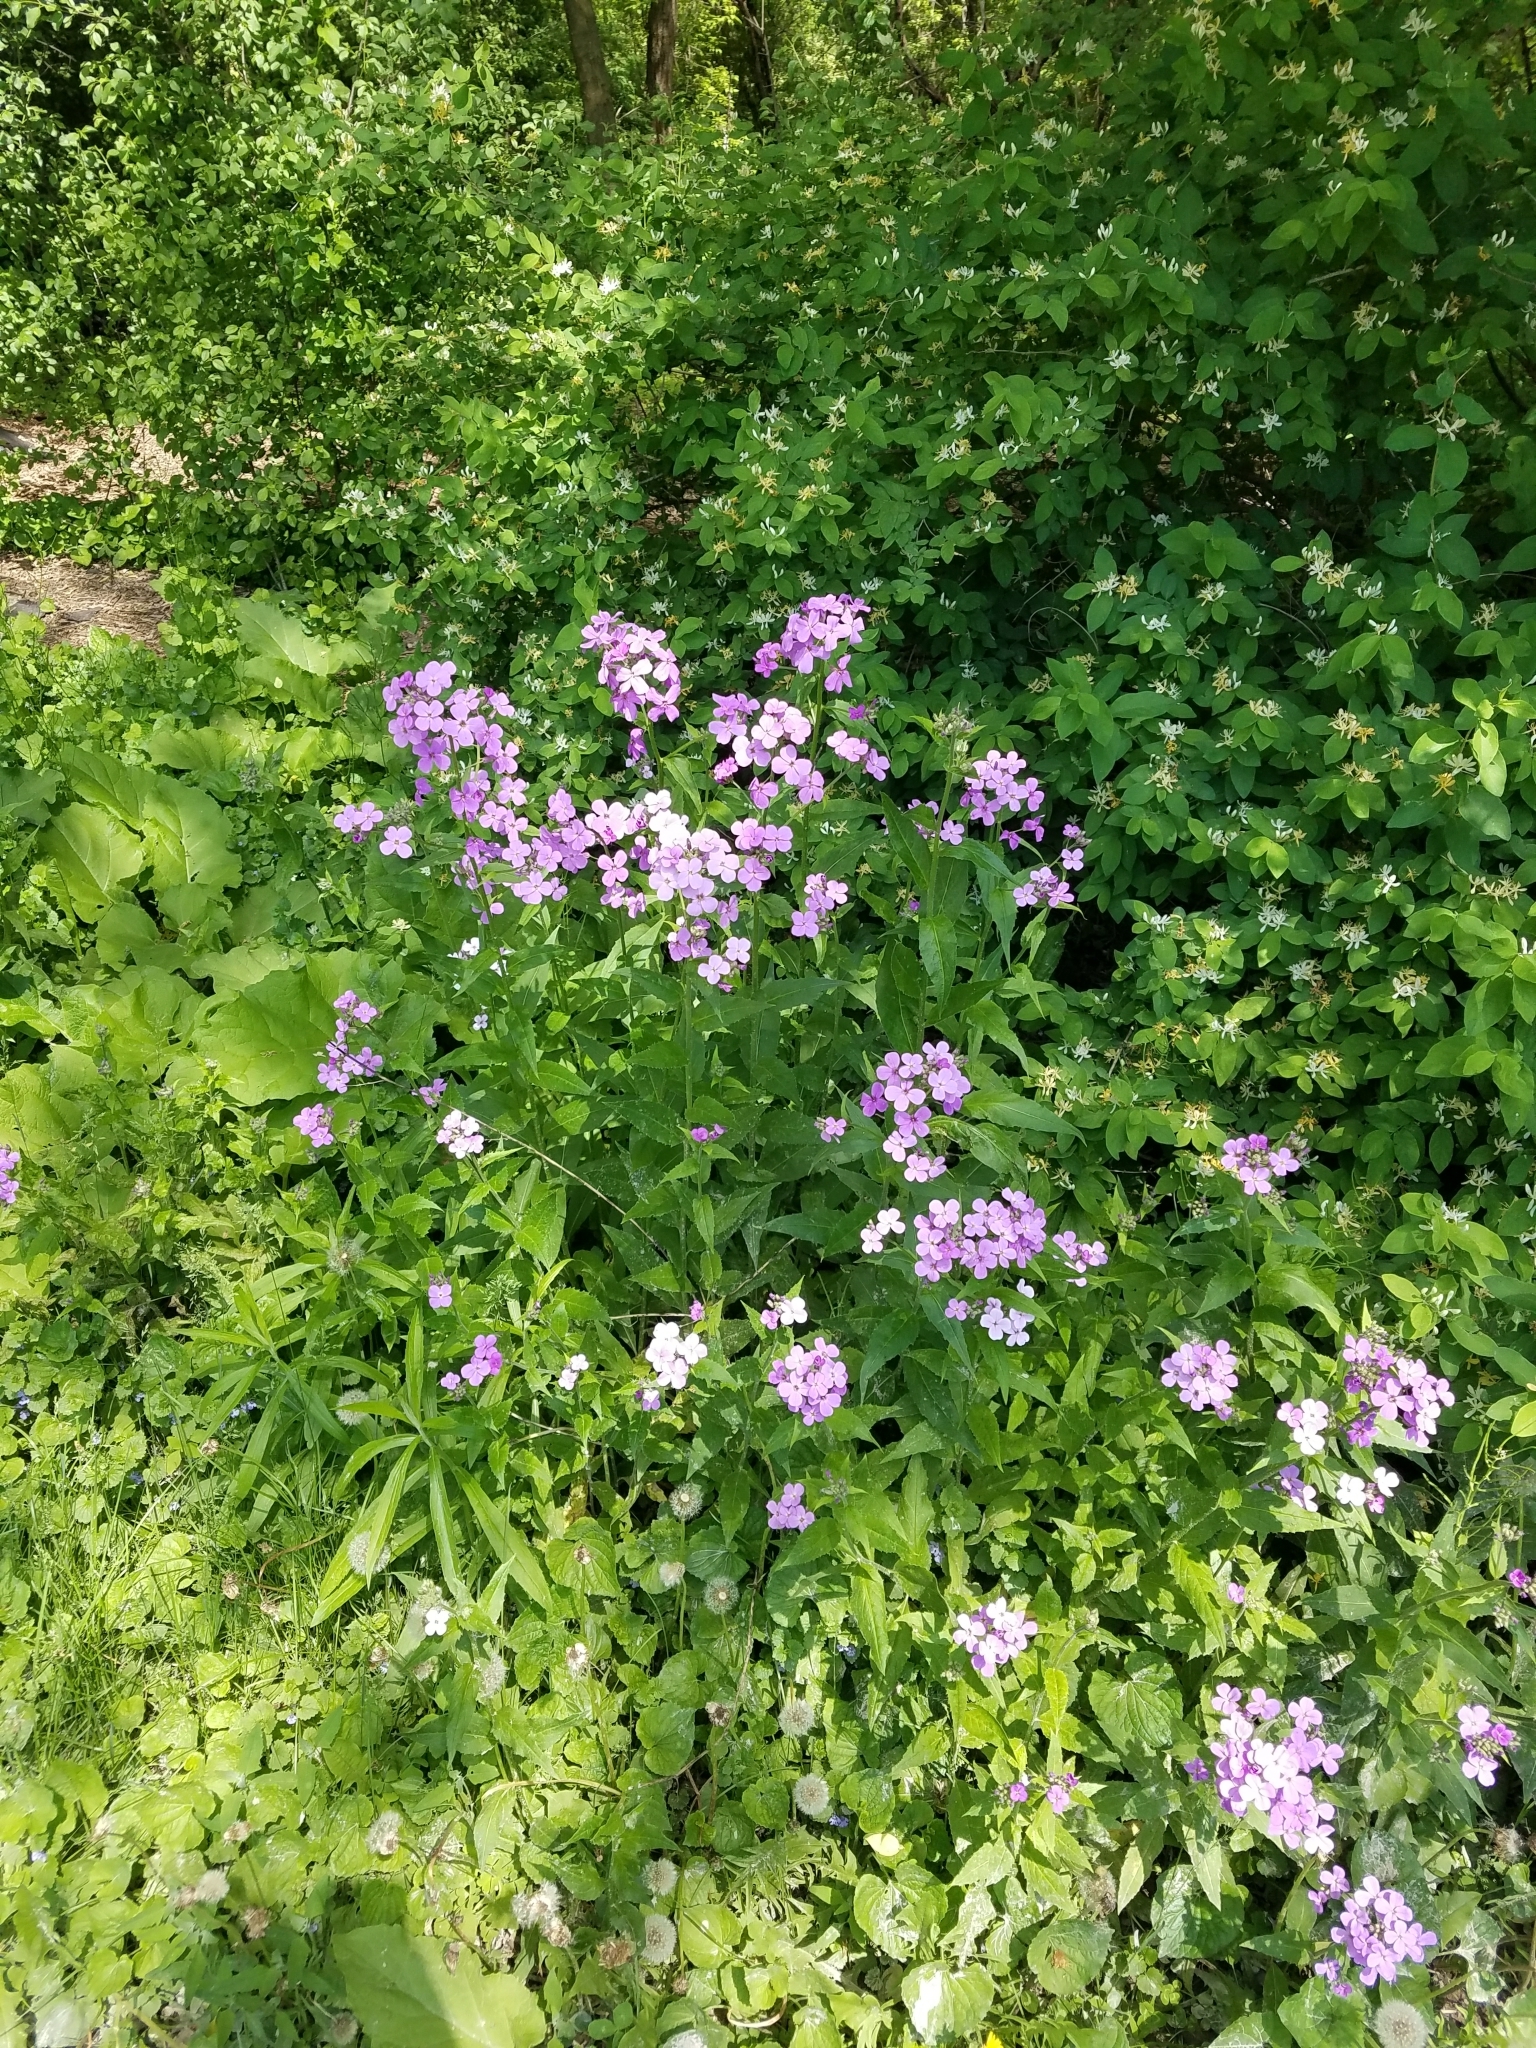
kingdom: Plantae
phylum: Tracheophyta
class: Magnoliopsida
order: Brassicales
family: Brassicaceae
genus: Hesperis
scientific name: Hesperis matronalis
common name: Dame's-violet
